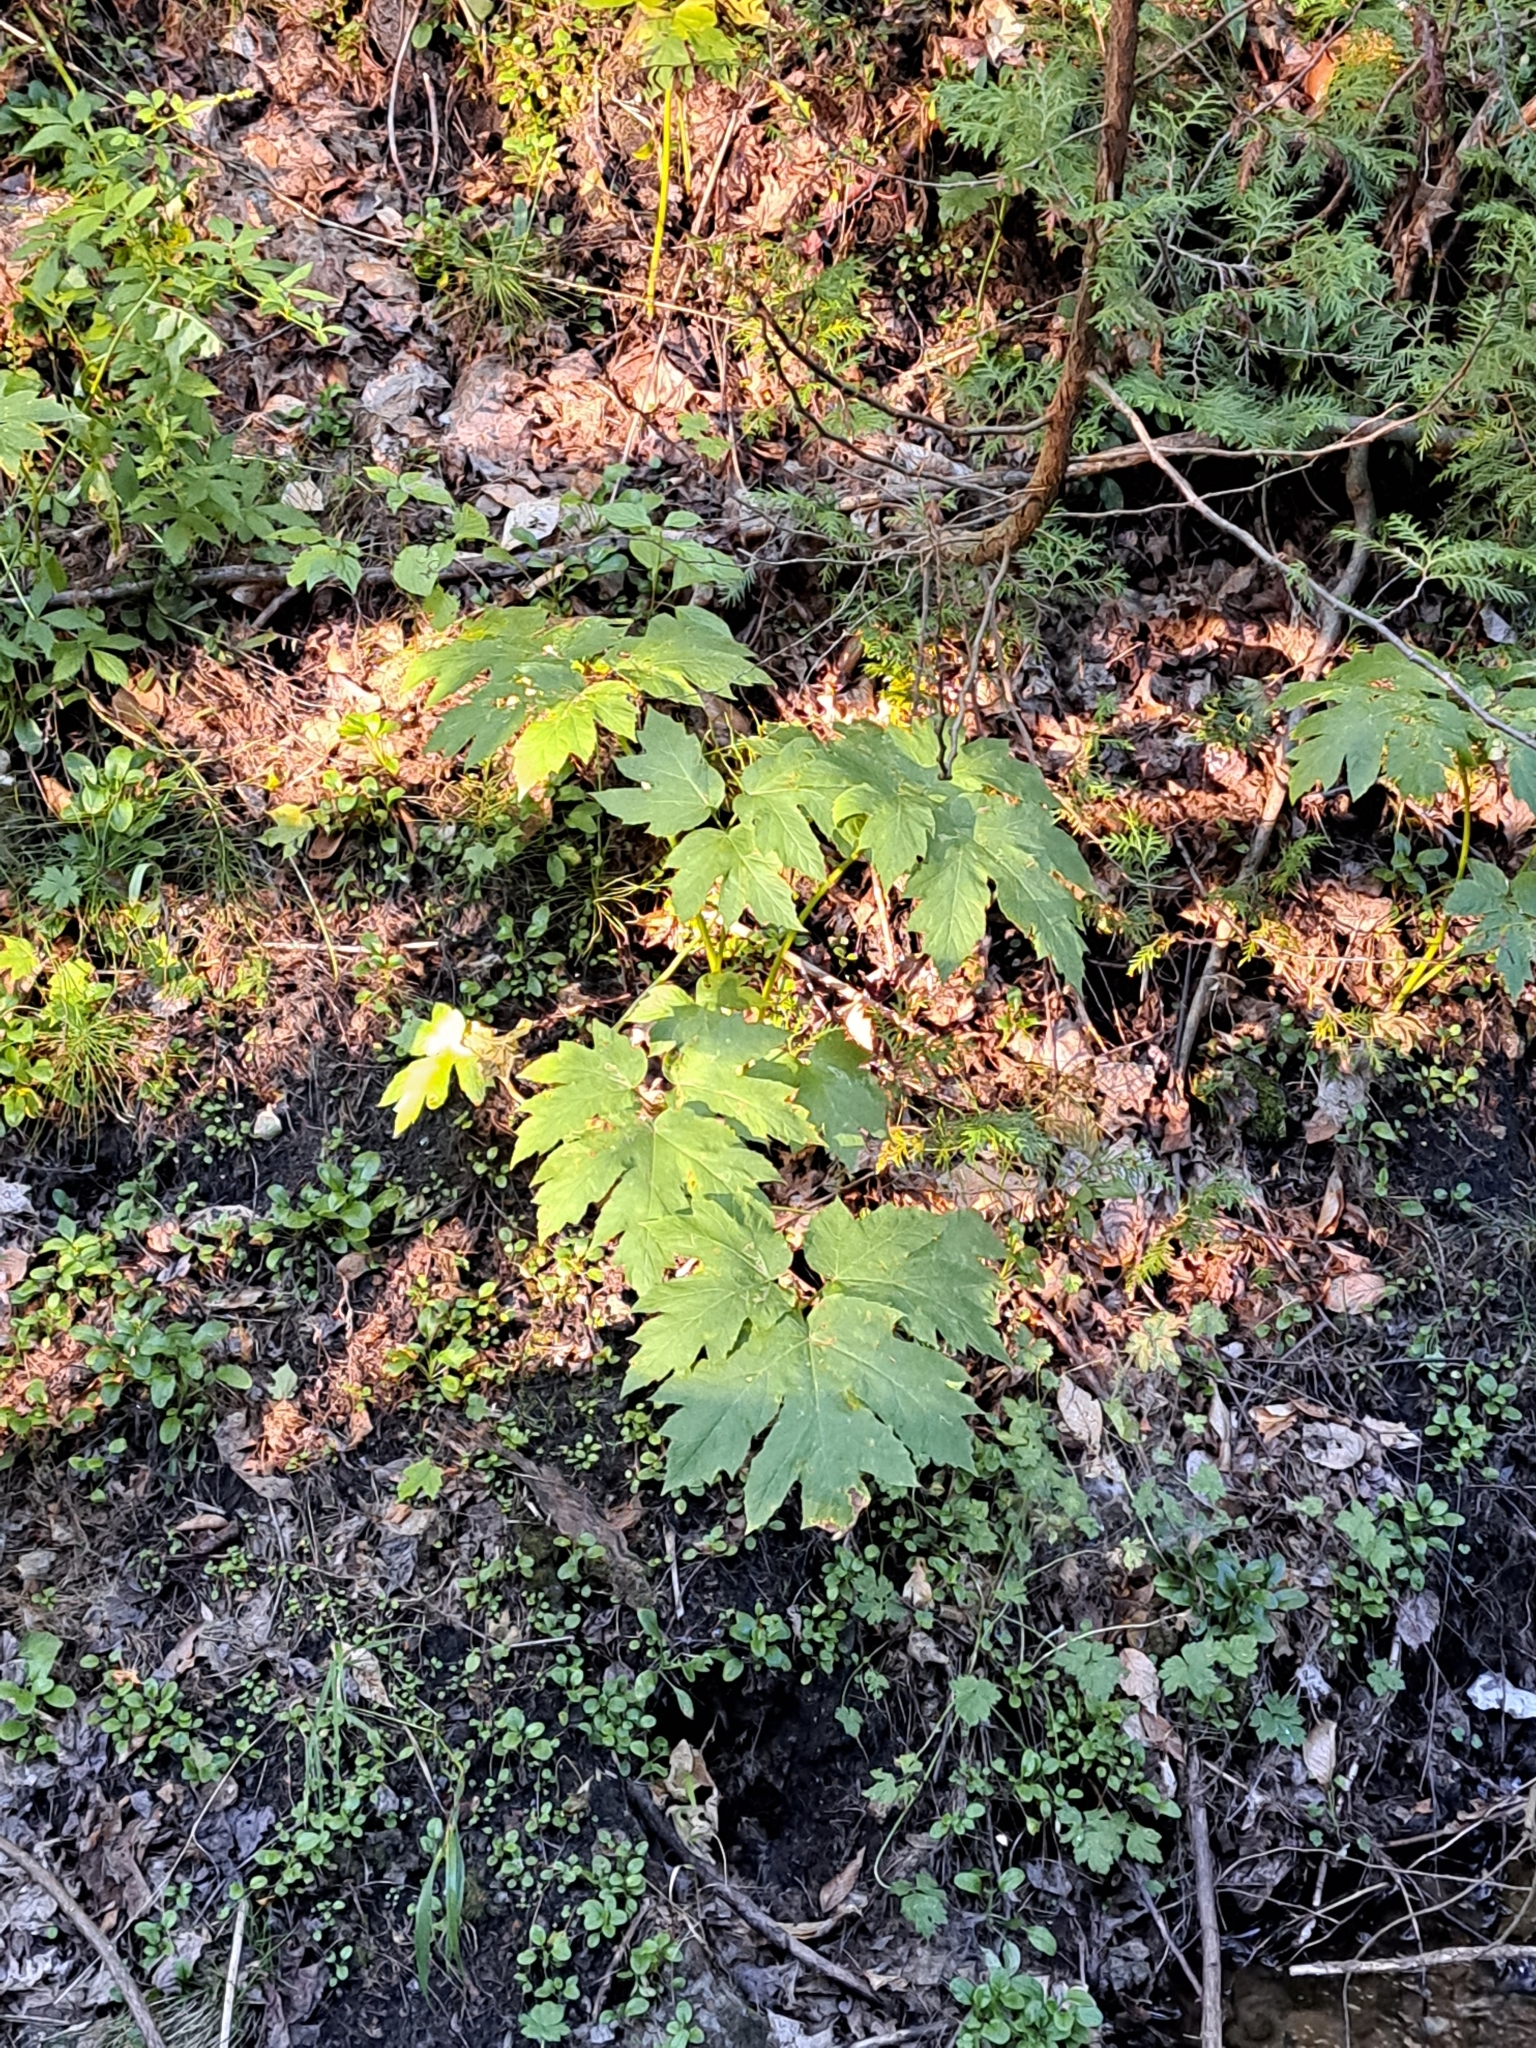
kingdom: Plantae
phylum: Tracheophyta
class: Magnoliopsida
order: Apiales
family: Apiaceae
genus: Heracleum
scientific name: Heracleum maximum
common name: American cow parsnip
